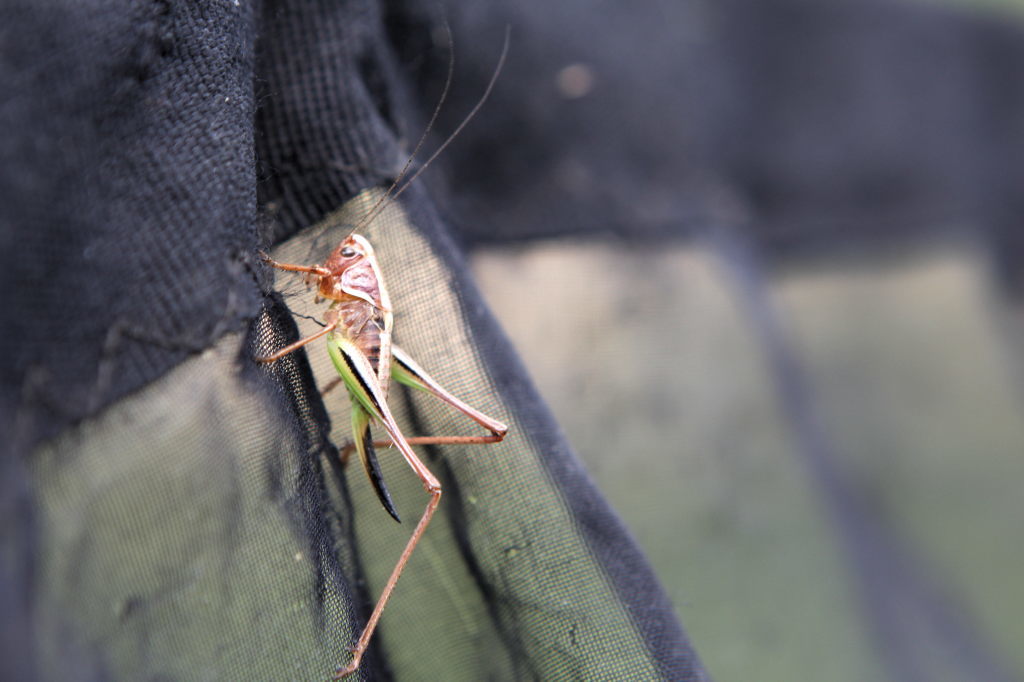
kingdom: Animalia
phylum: Arthropoda
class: Insecta
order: Orthoptera
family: Tettigoniidae
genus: Metrioptera
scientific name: Metrioptera brachyptera
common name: Bog bush-cricket
